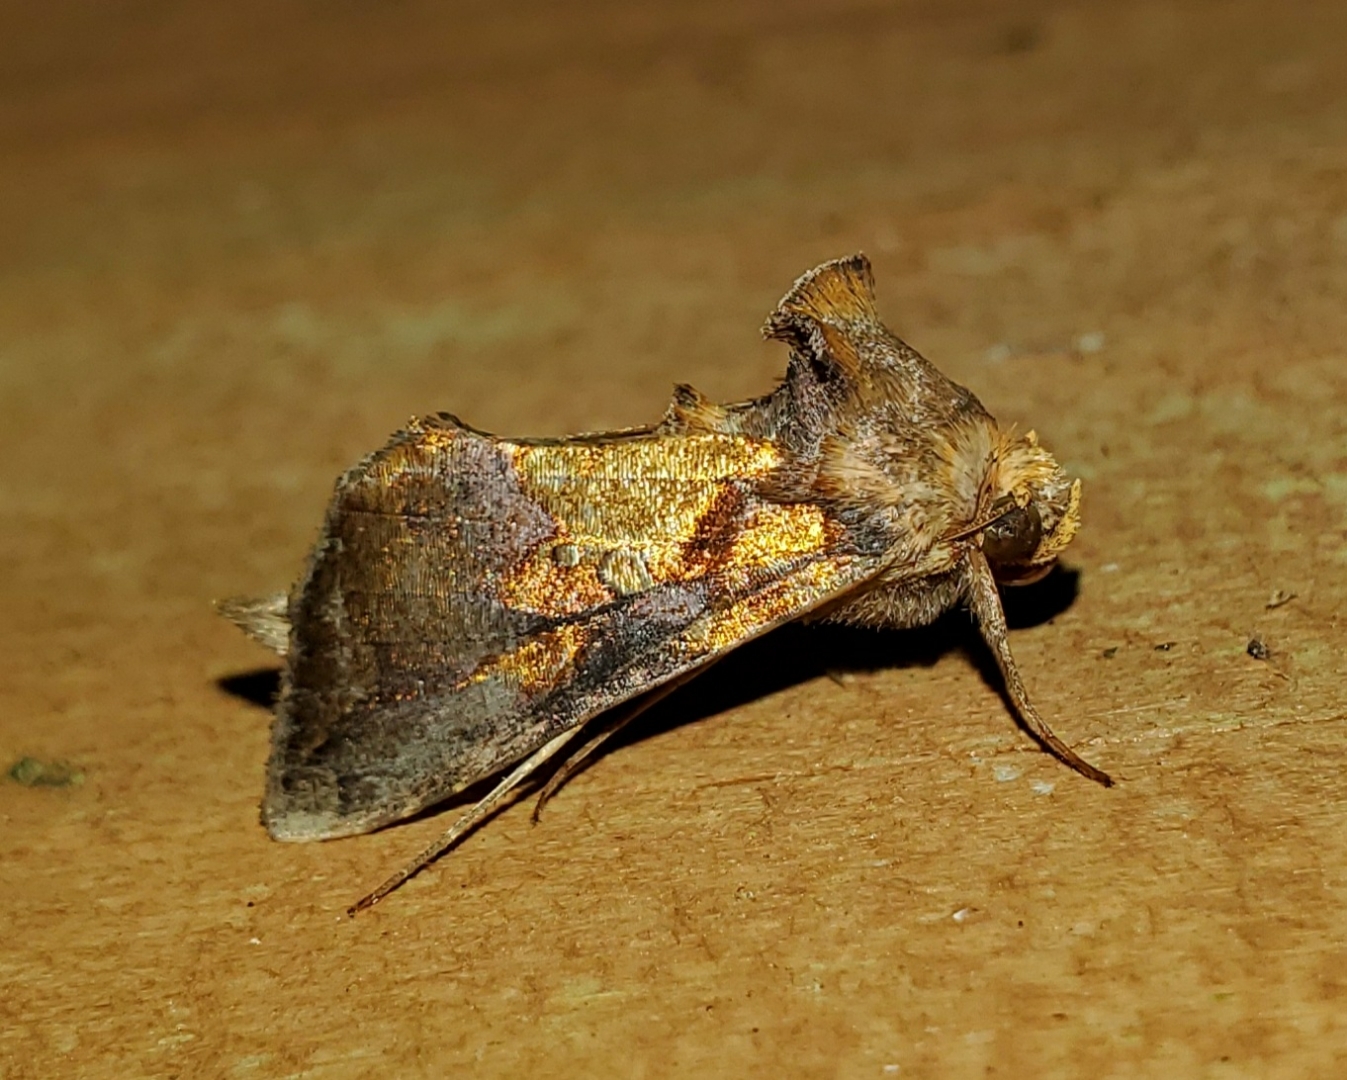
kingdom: Animalia
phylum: Arthropoda
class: Insecta
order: Lepidoptera
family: Noctuidae
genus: Argyrogramma
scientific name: Argyrogramma verruca
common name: Golden looper moth
